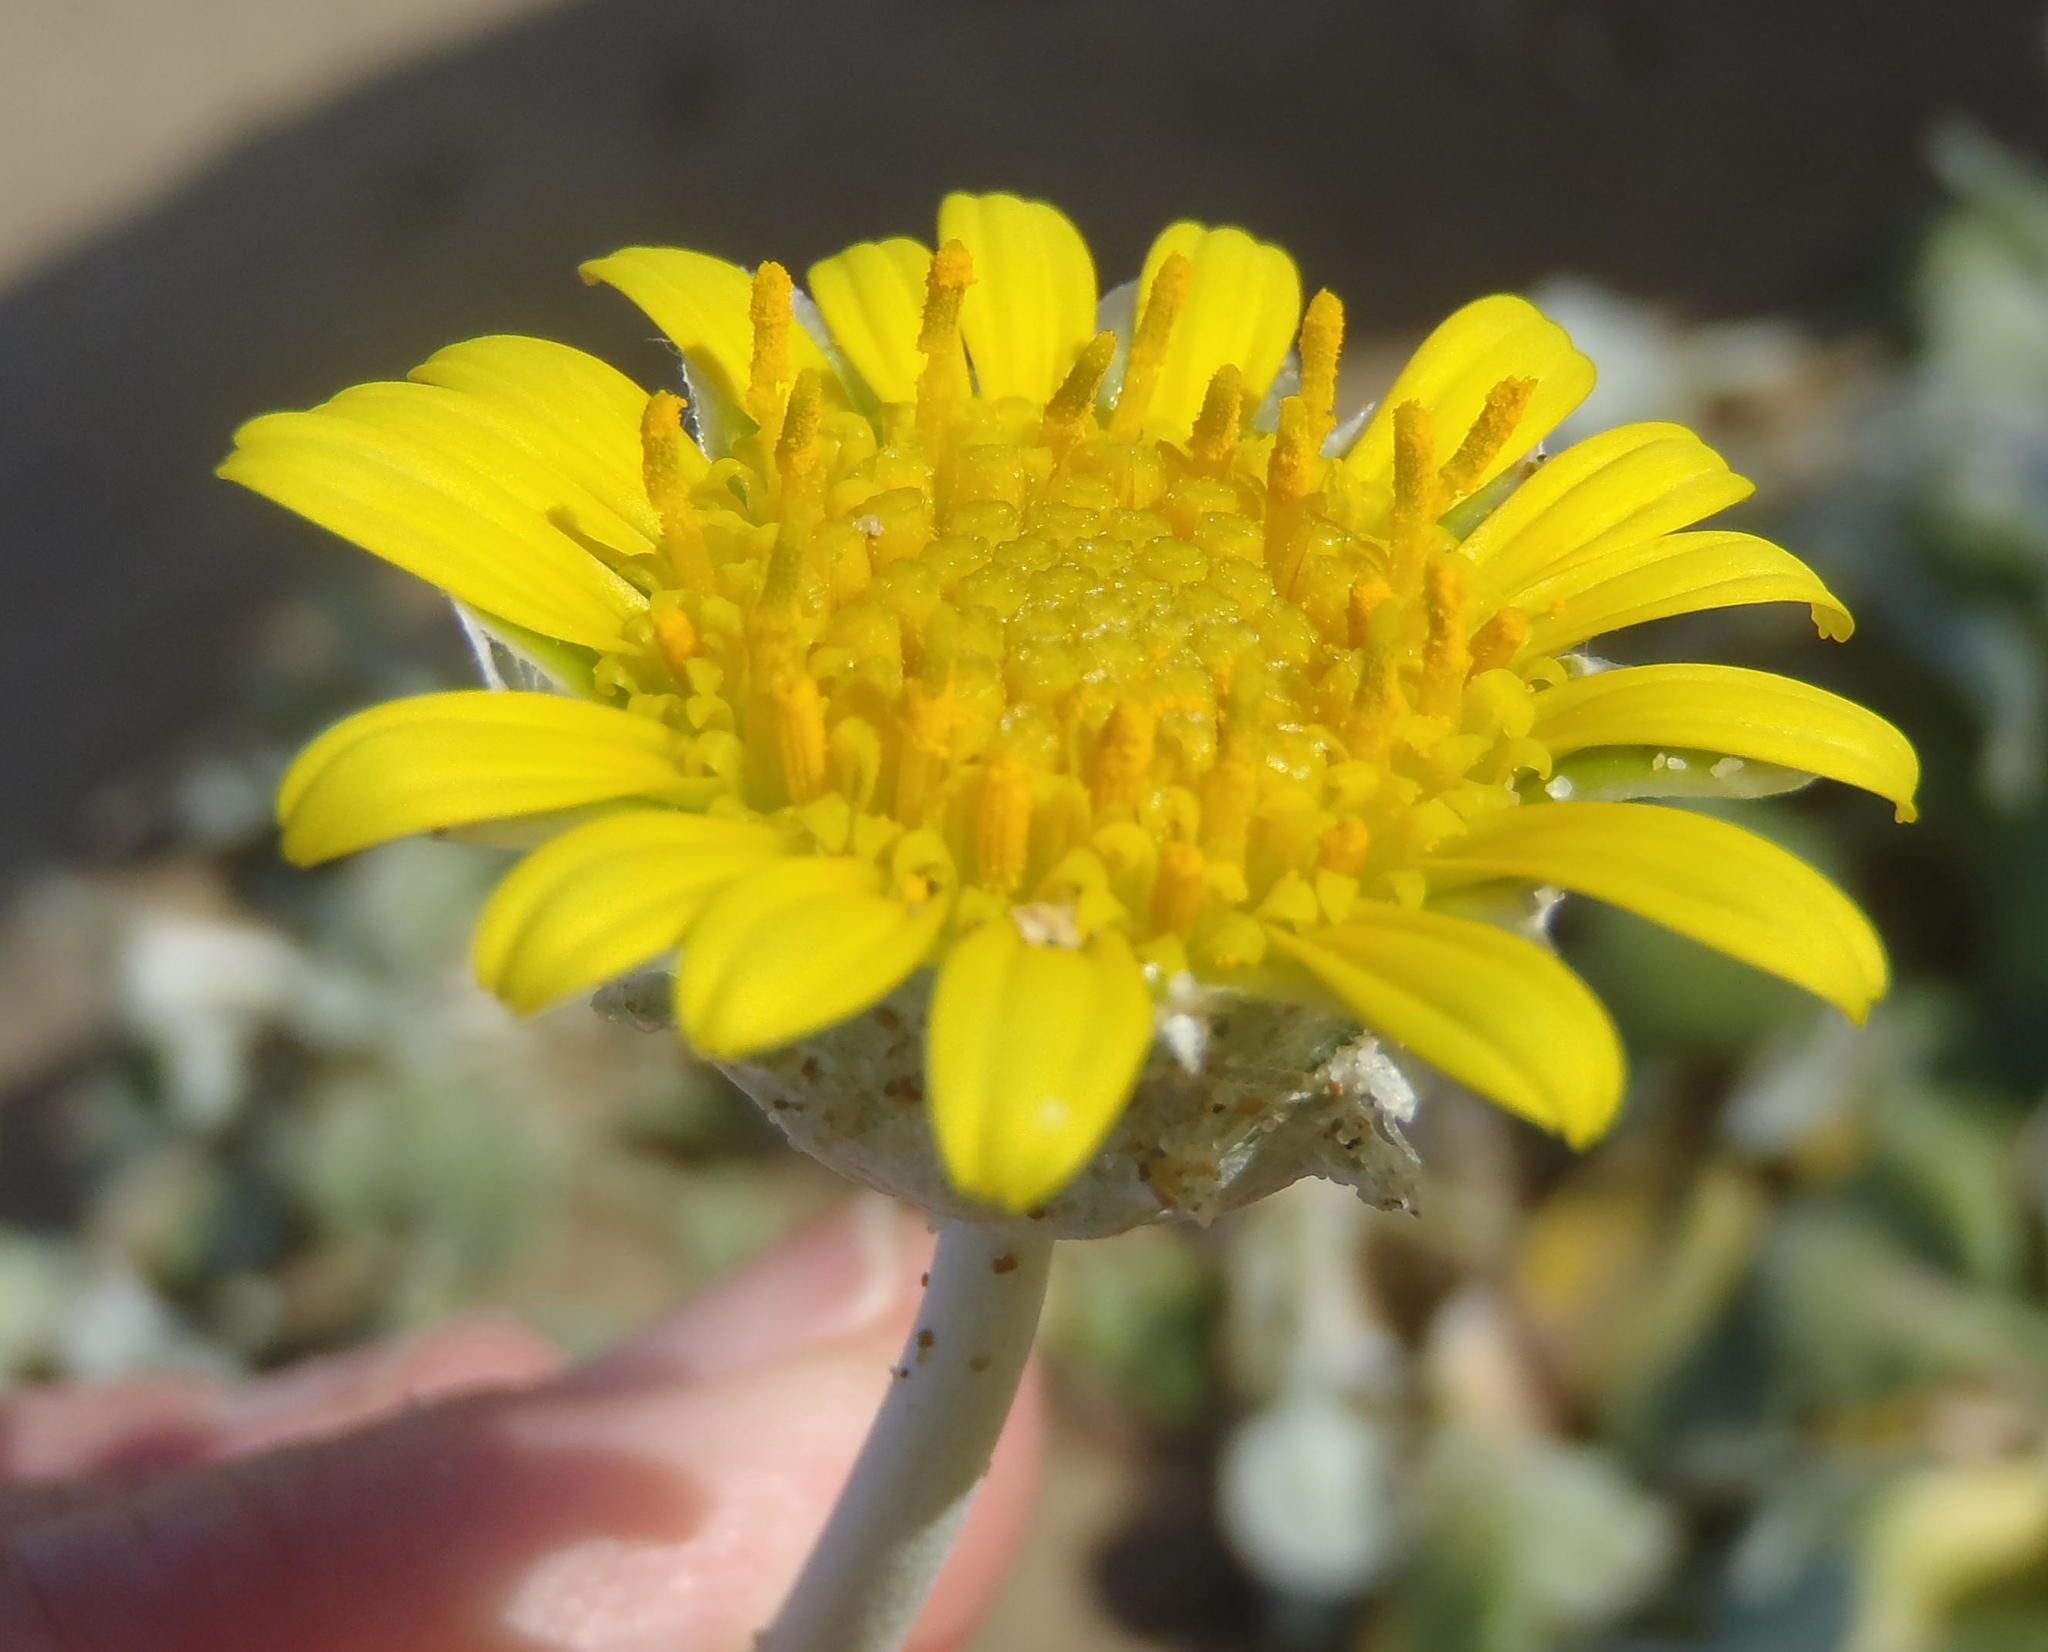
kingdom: Plantae
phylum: Tracheophyta
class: Magnoliopsida
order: Asterales
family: Asteraceae
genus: Arctotheca
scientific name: Arctotheca populifolia
